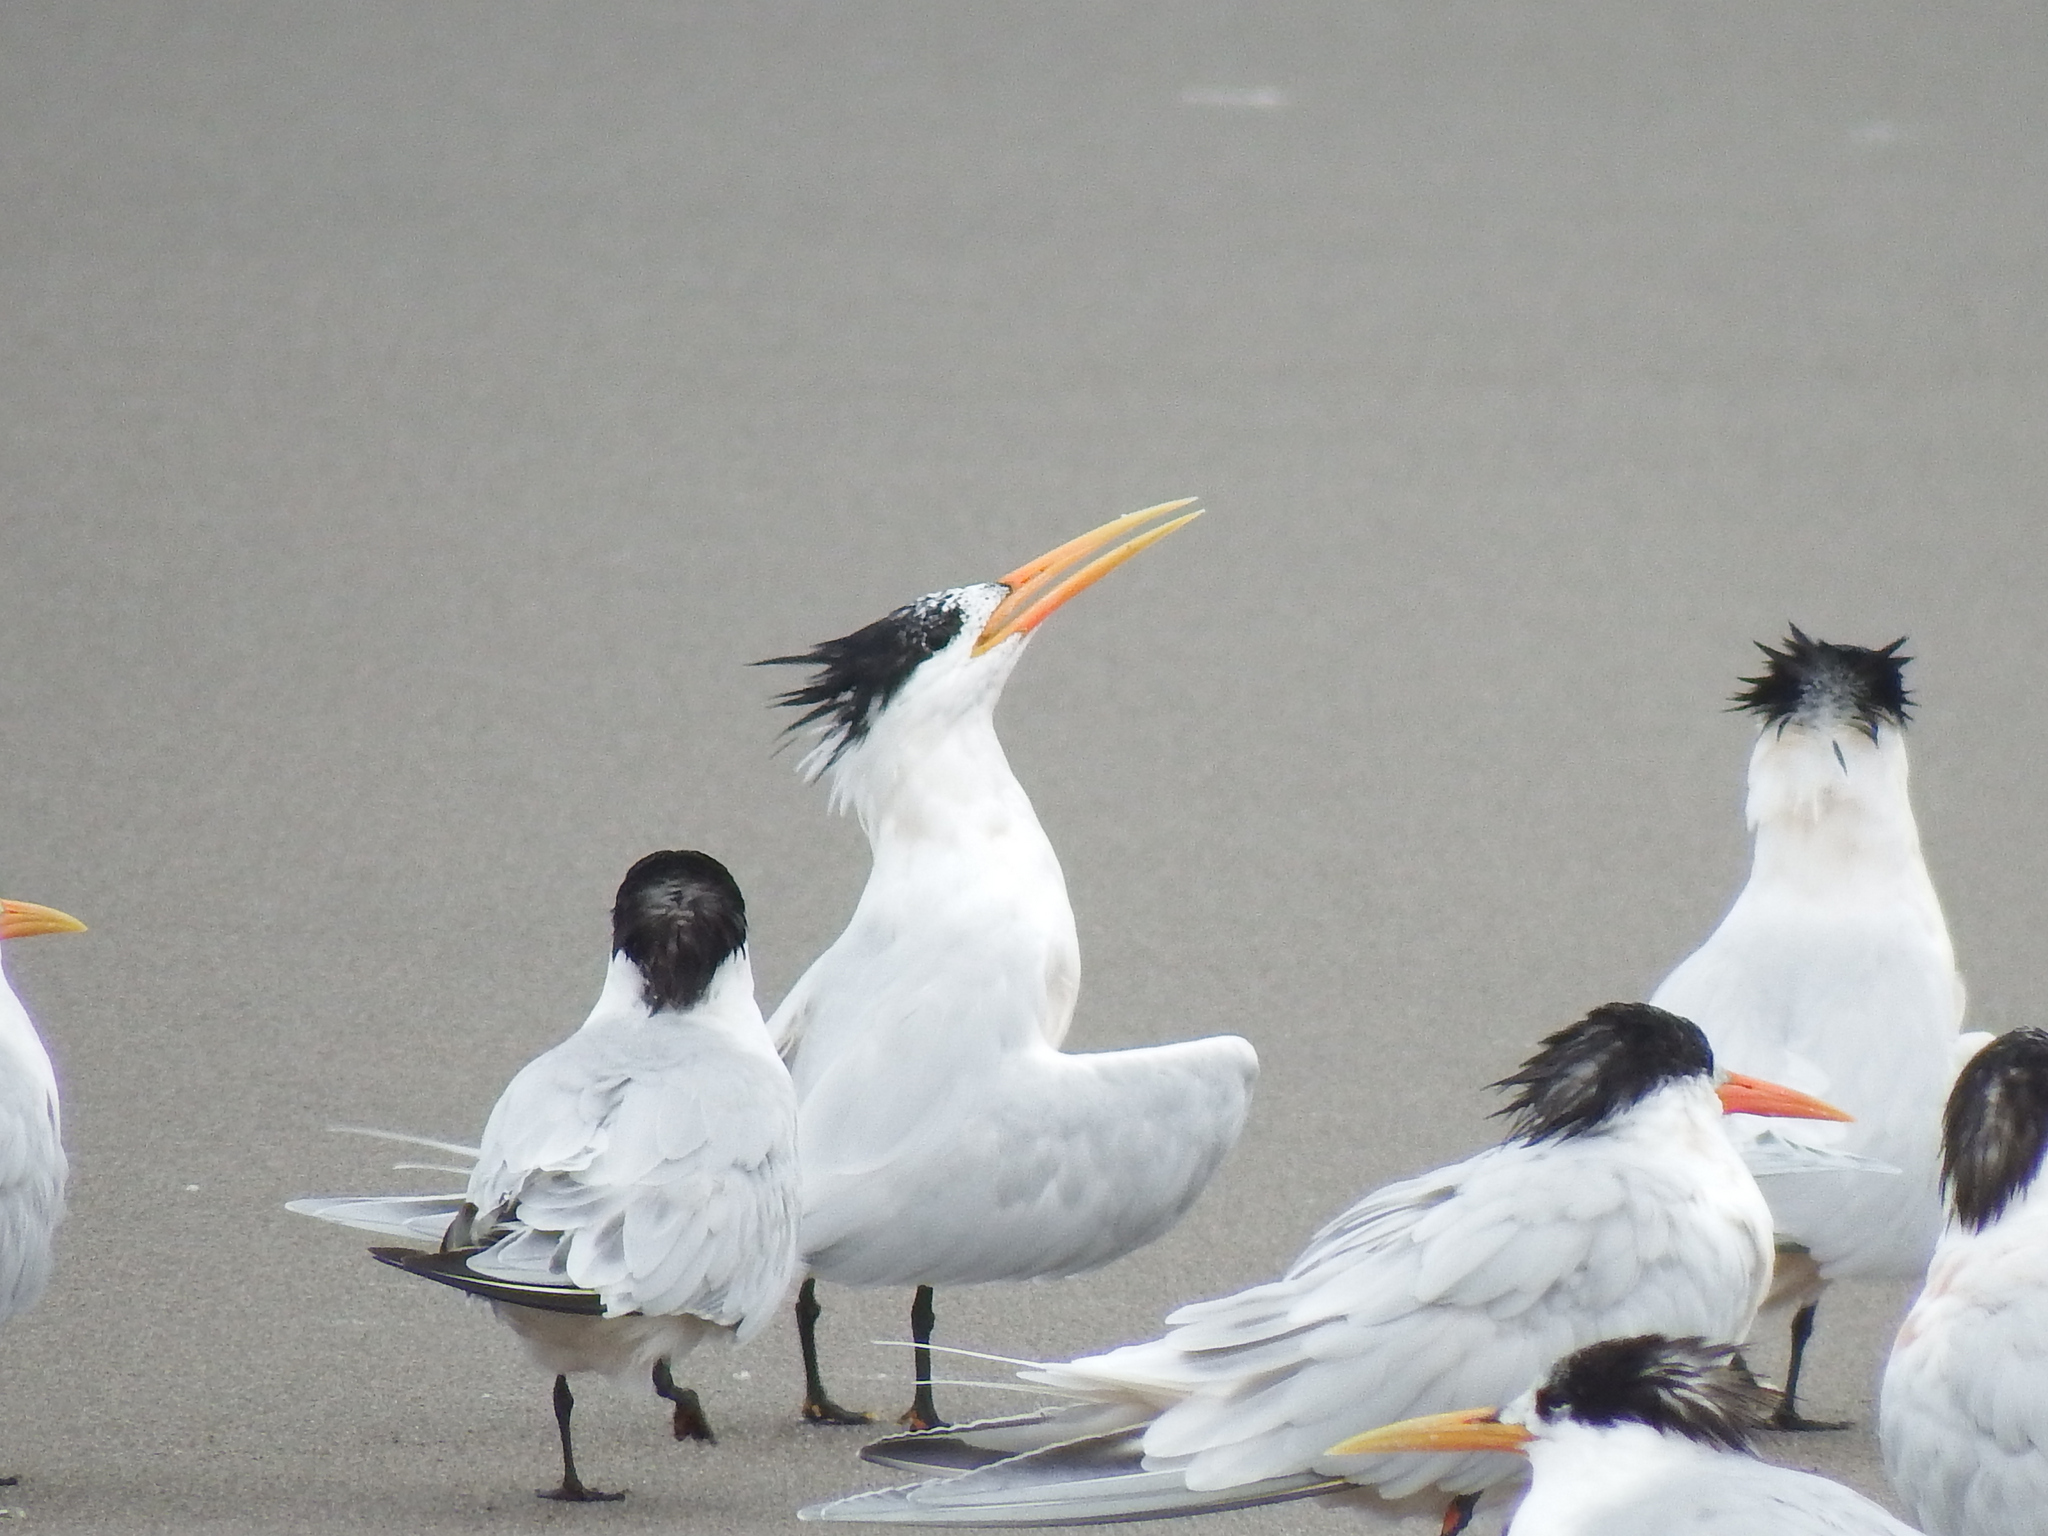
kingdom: Animalia
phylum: Chordata
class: Aves
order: Charadriiformes
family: Laridae
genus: Thalasseus
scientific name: Thalasseus elegans
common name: Elegant tern
